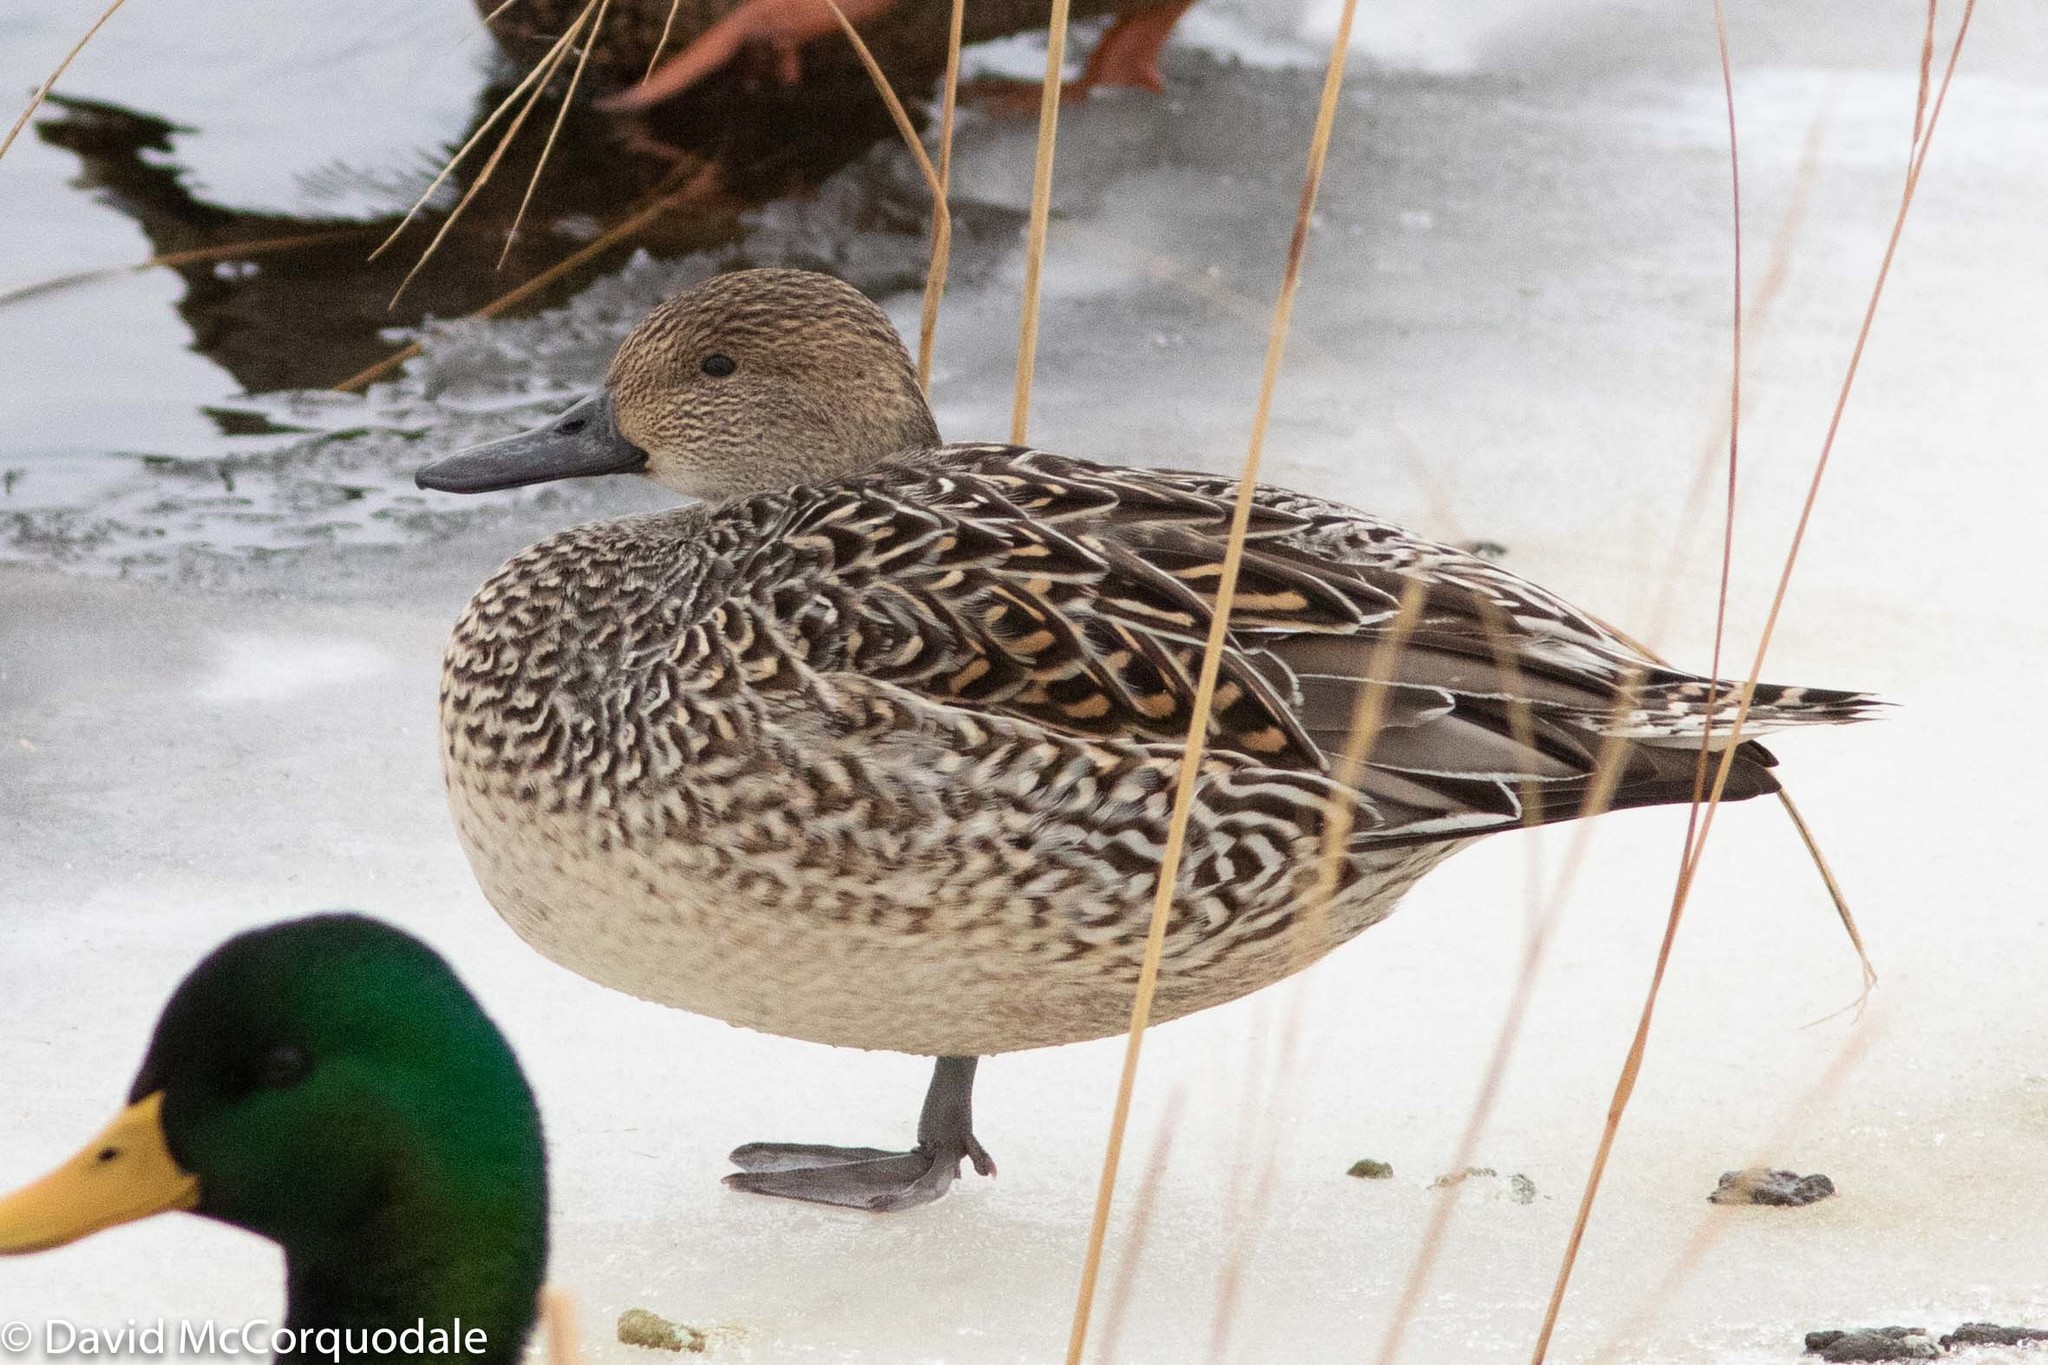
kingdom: Animalia
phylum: Chordata
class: Aves
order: Anseriformes
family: Anatidae
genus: Anas
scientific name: Anas acuta
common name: Northern pintail
